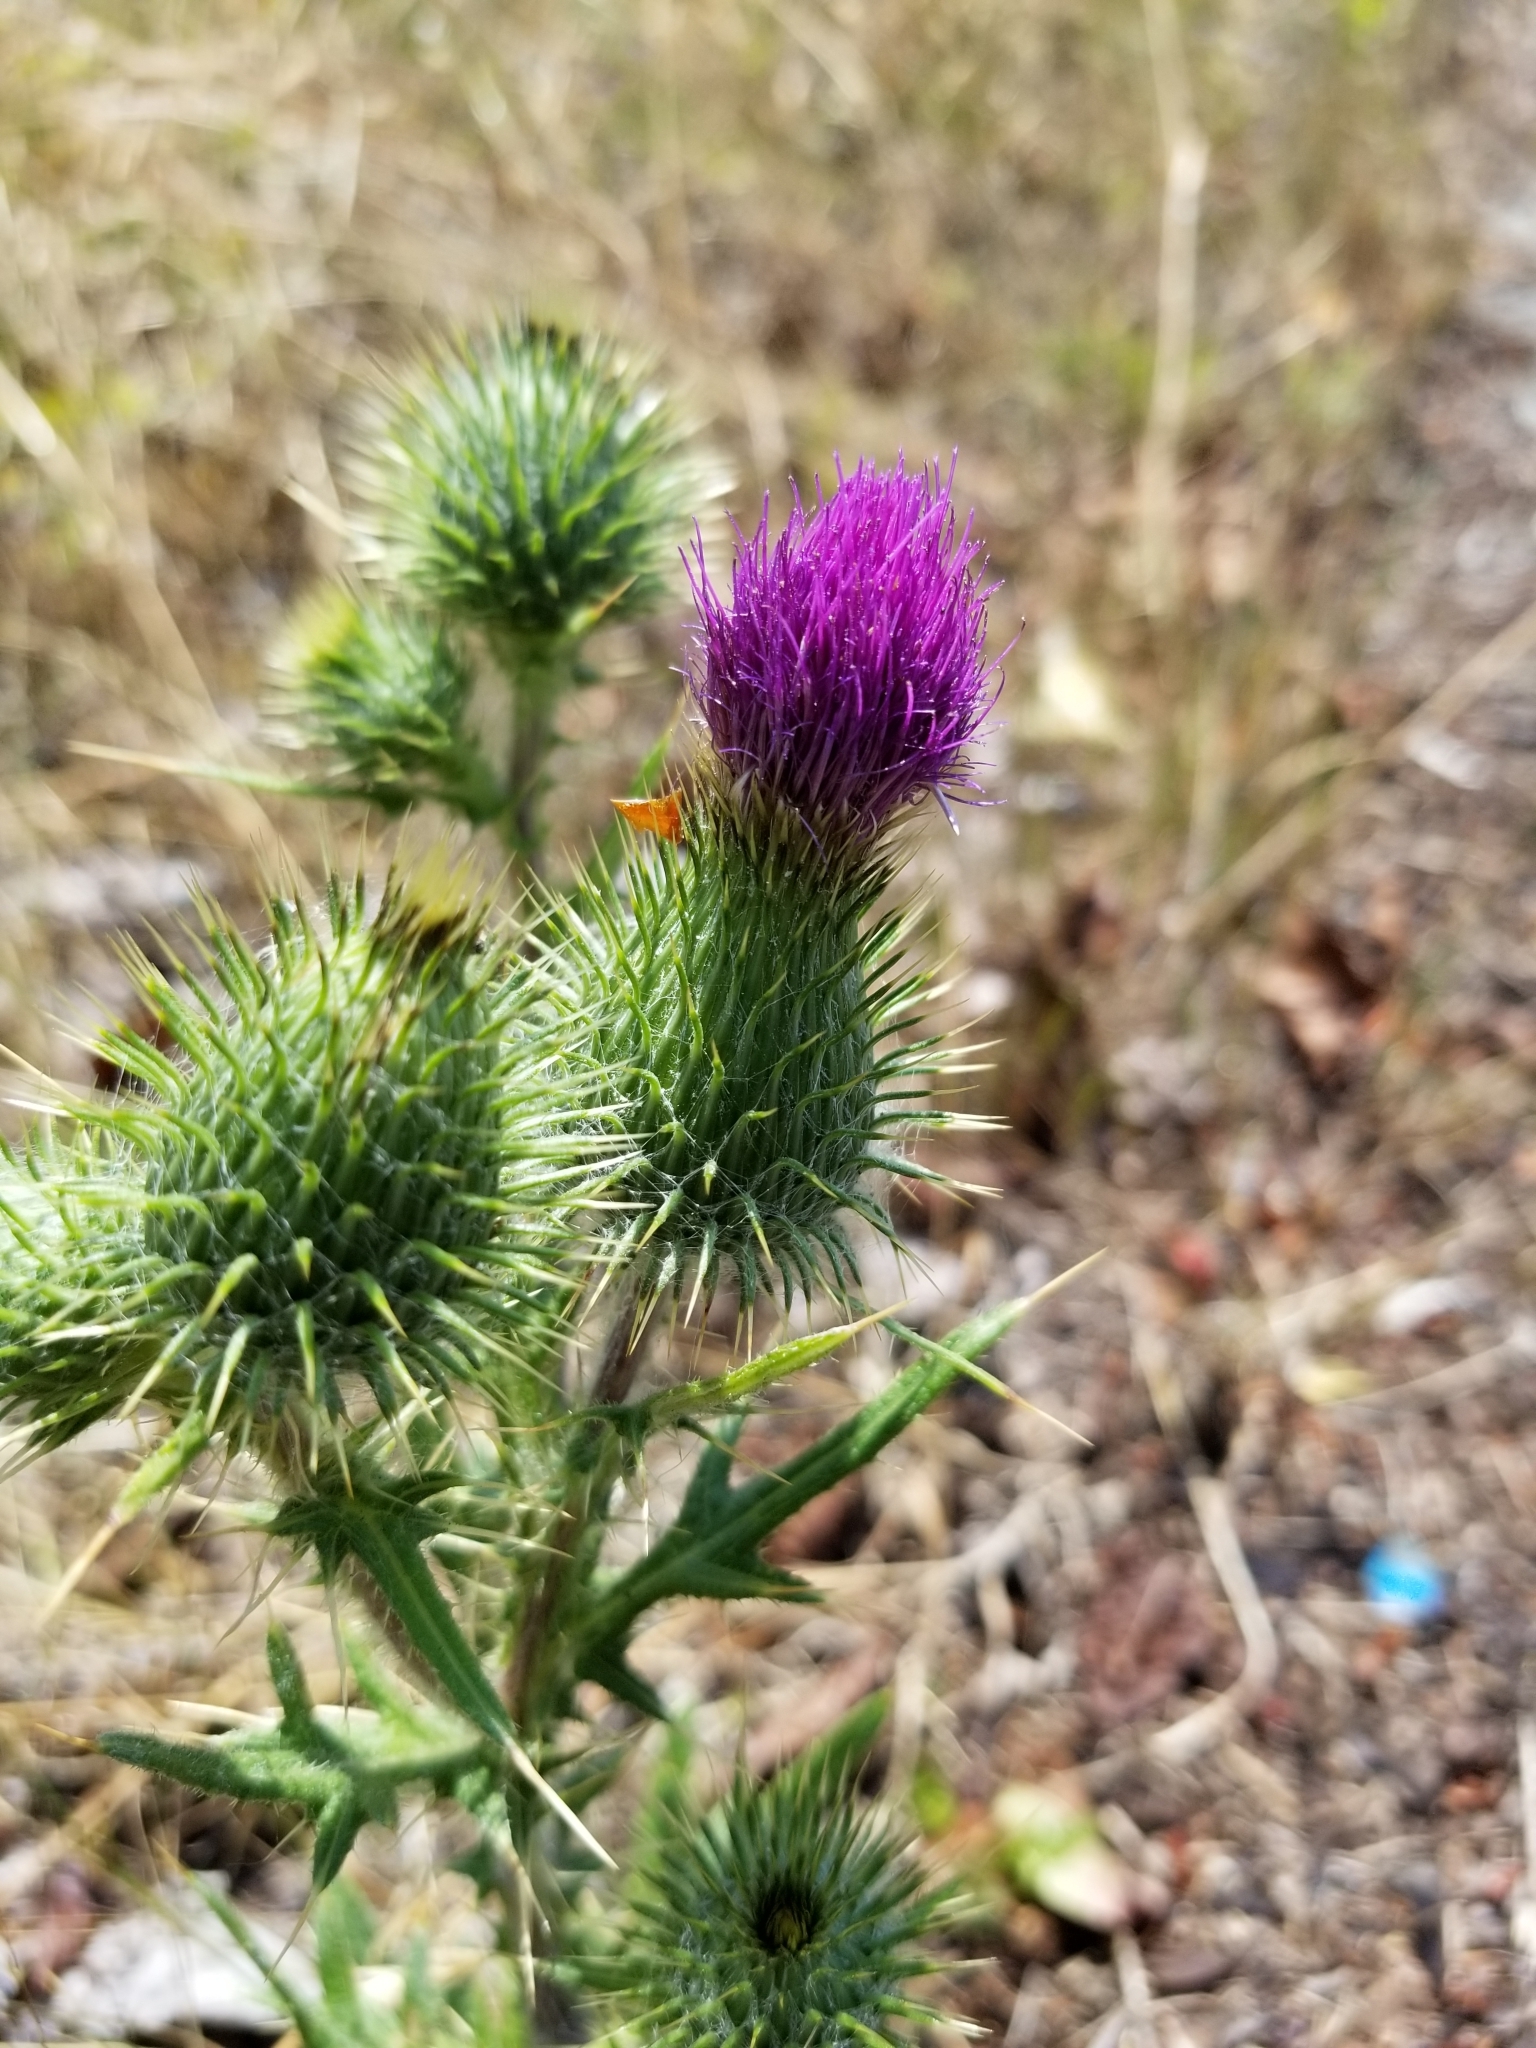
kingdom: Plantae
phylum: Tracheophyta
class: Magnoliopsida
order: Asterales
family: Asteraceae
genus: Cirsium
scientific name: Cirsium vulgare
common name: Bull thistle
